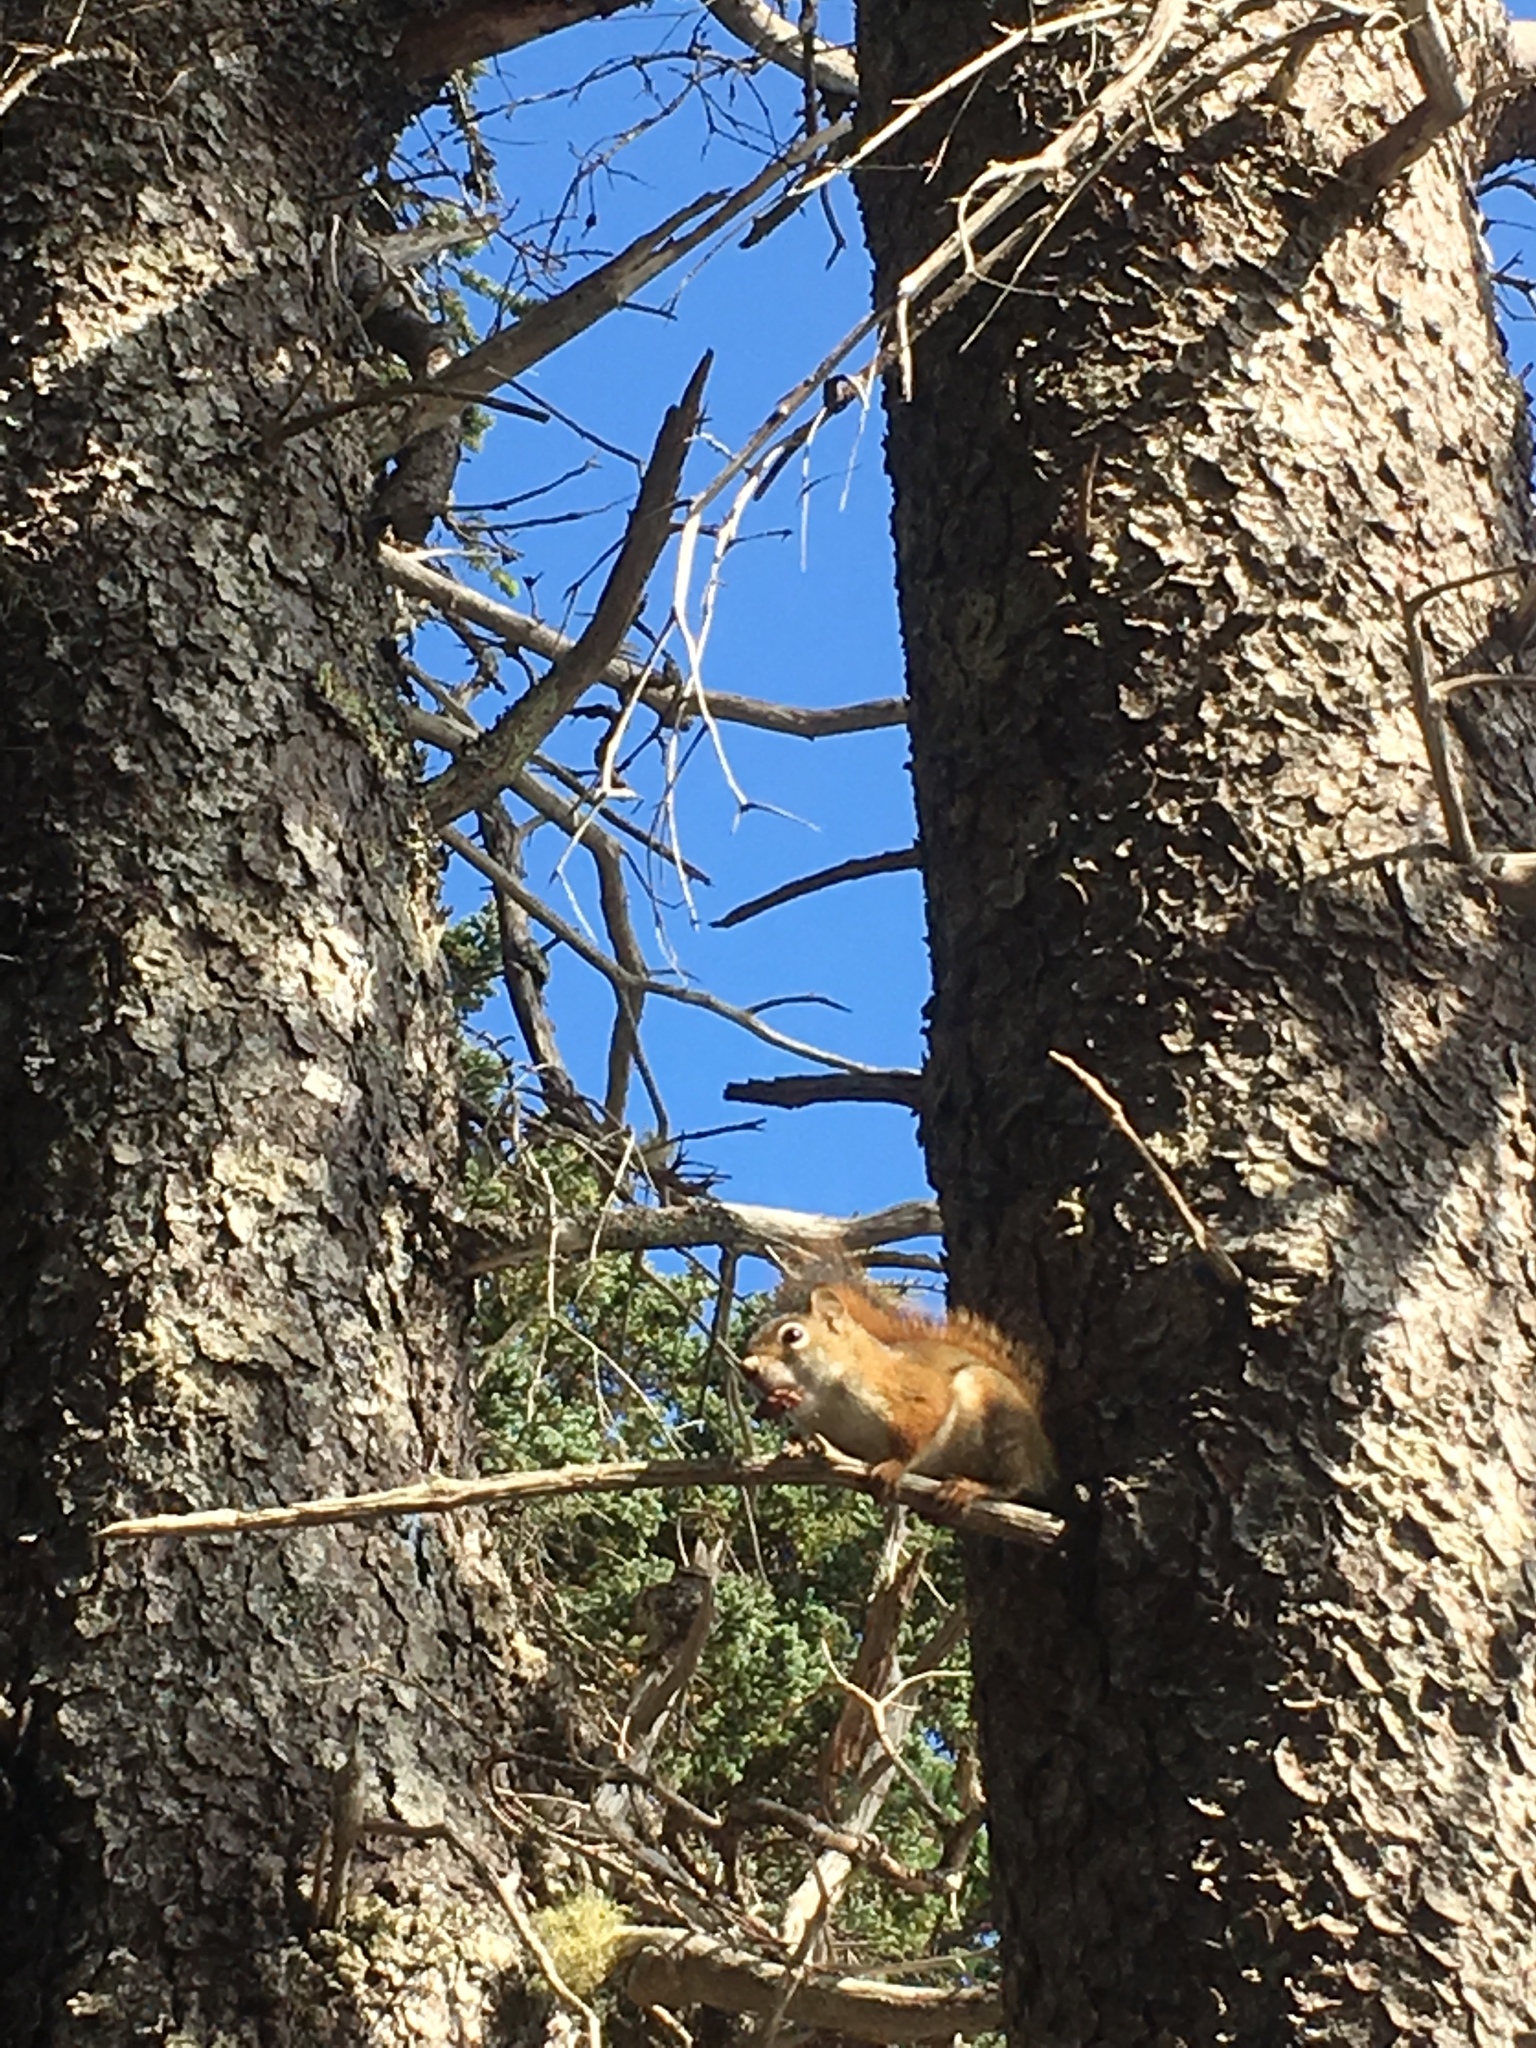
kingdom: Animalia
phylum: Chordata
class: Mammalia
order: Rodentia
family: Sciuridae
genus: Tamiasciurus
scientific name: Tamiasciurus hudsonicus
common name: Red squirrel
